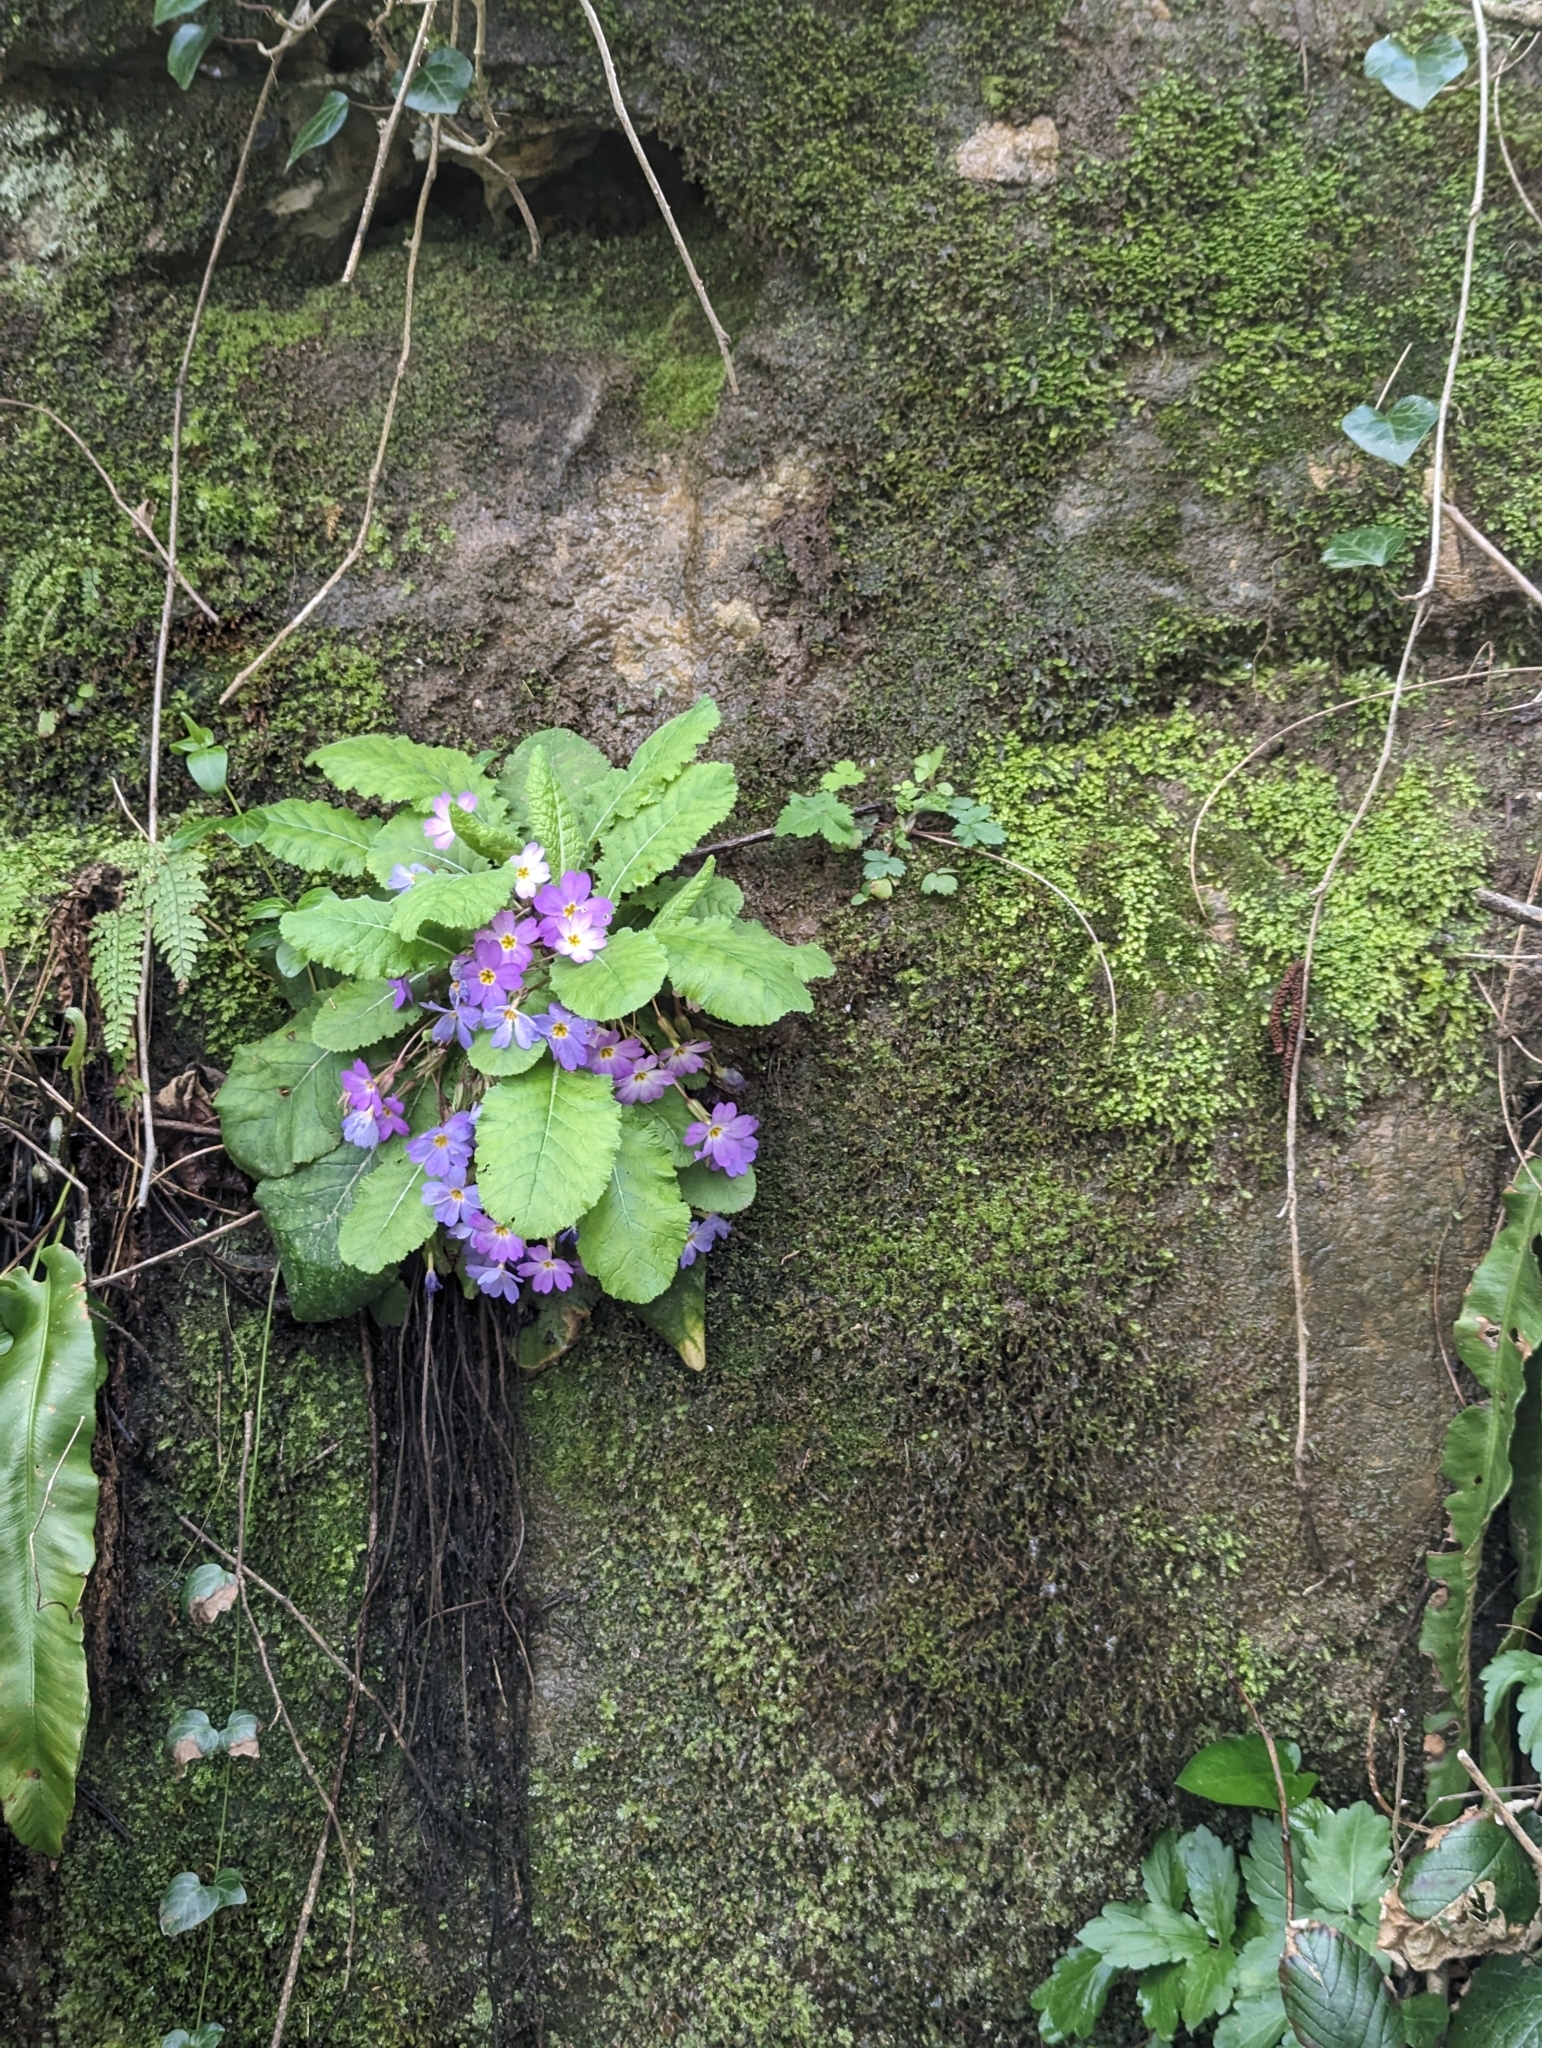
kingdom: Plantae
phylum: Tracheophyta
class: Magnoliopsida
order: Ericales
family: Primulaceae
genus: Primula
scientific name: Primula vulgaris
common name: Primrose
